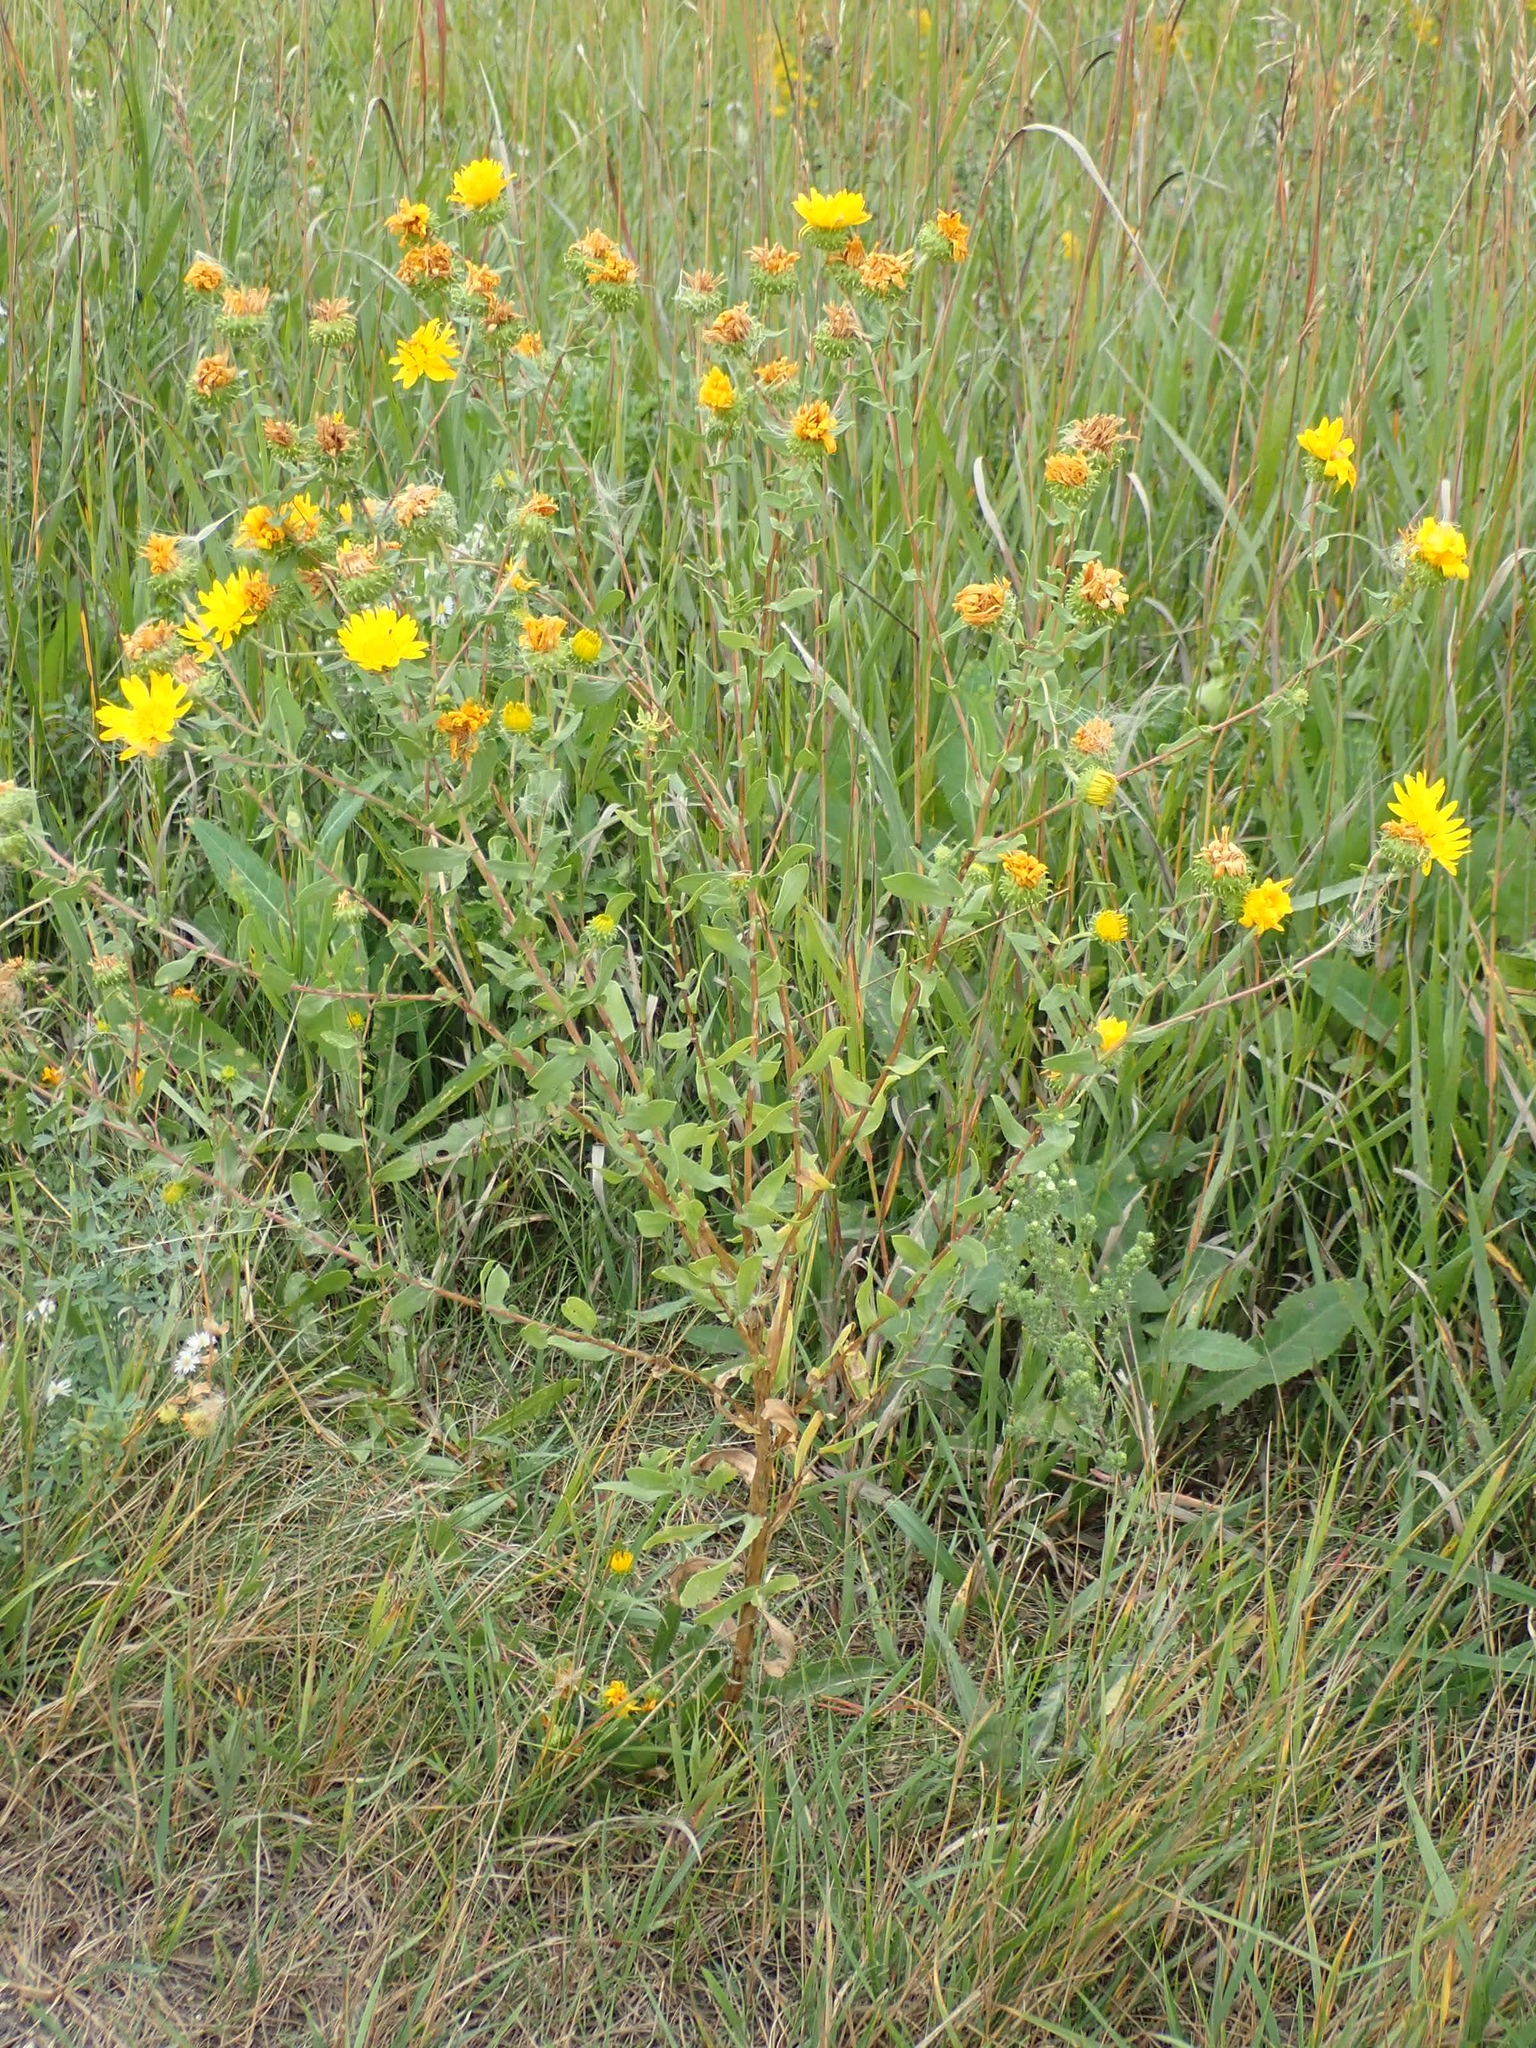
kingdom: Plantae
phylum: Tracheophyta
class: Magnoliopsida
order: Asterales
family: Asteraceae
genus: Grindelia
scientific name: Grindelia squarrosa
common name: Curly-cup gumweed
